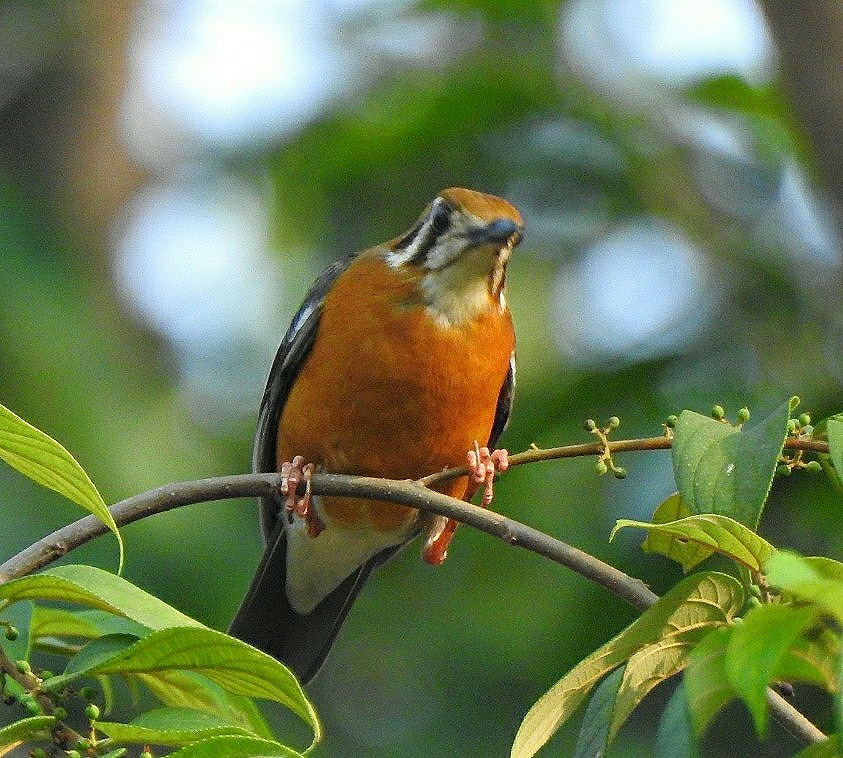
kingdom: Animalia
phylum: Chordata
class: Aves
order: Passeriformes
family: Turdidae
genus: Geokichla
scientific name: Geokichla citrina
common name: Orange-headed thrush
